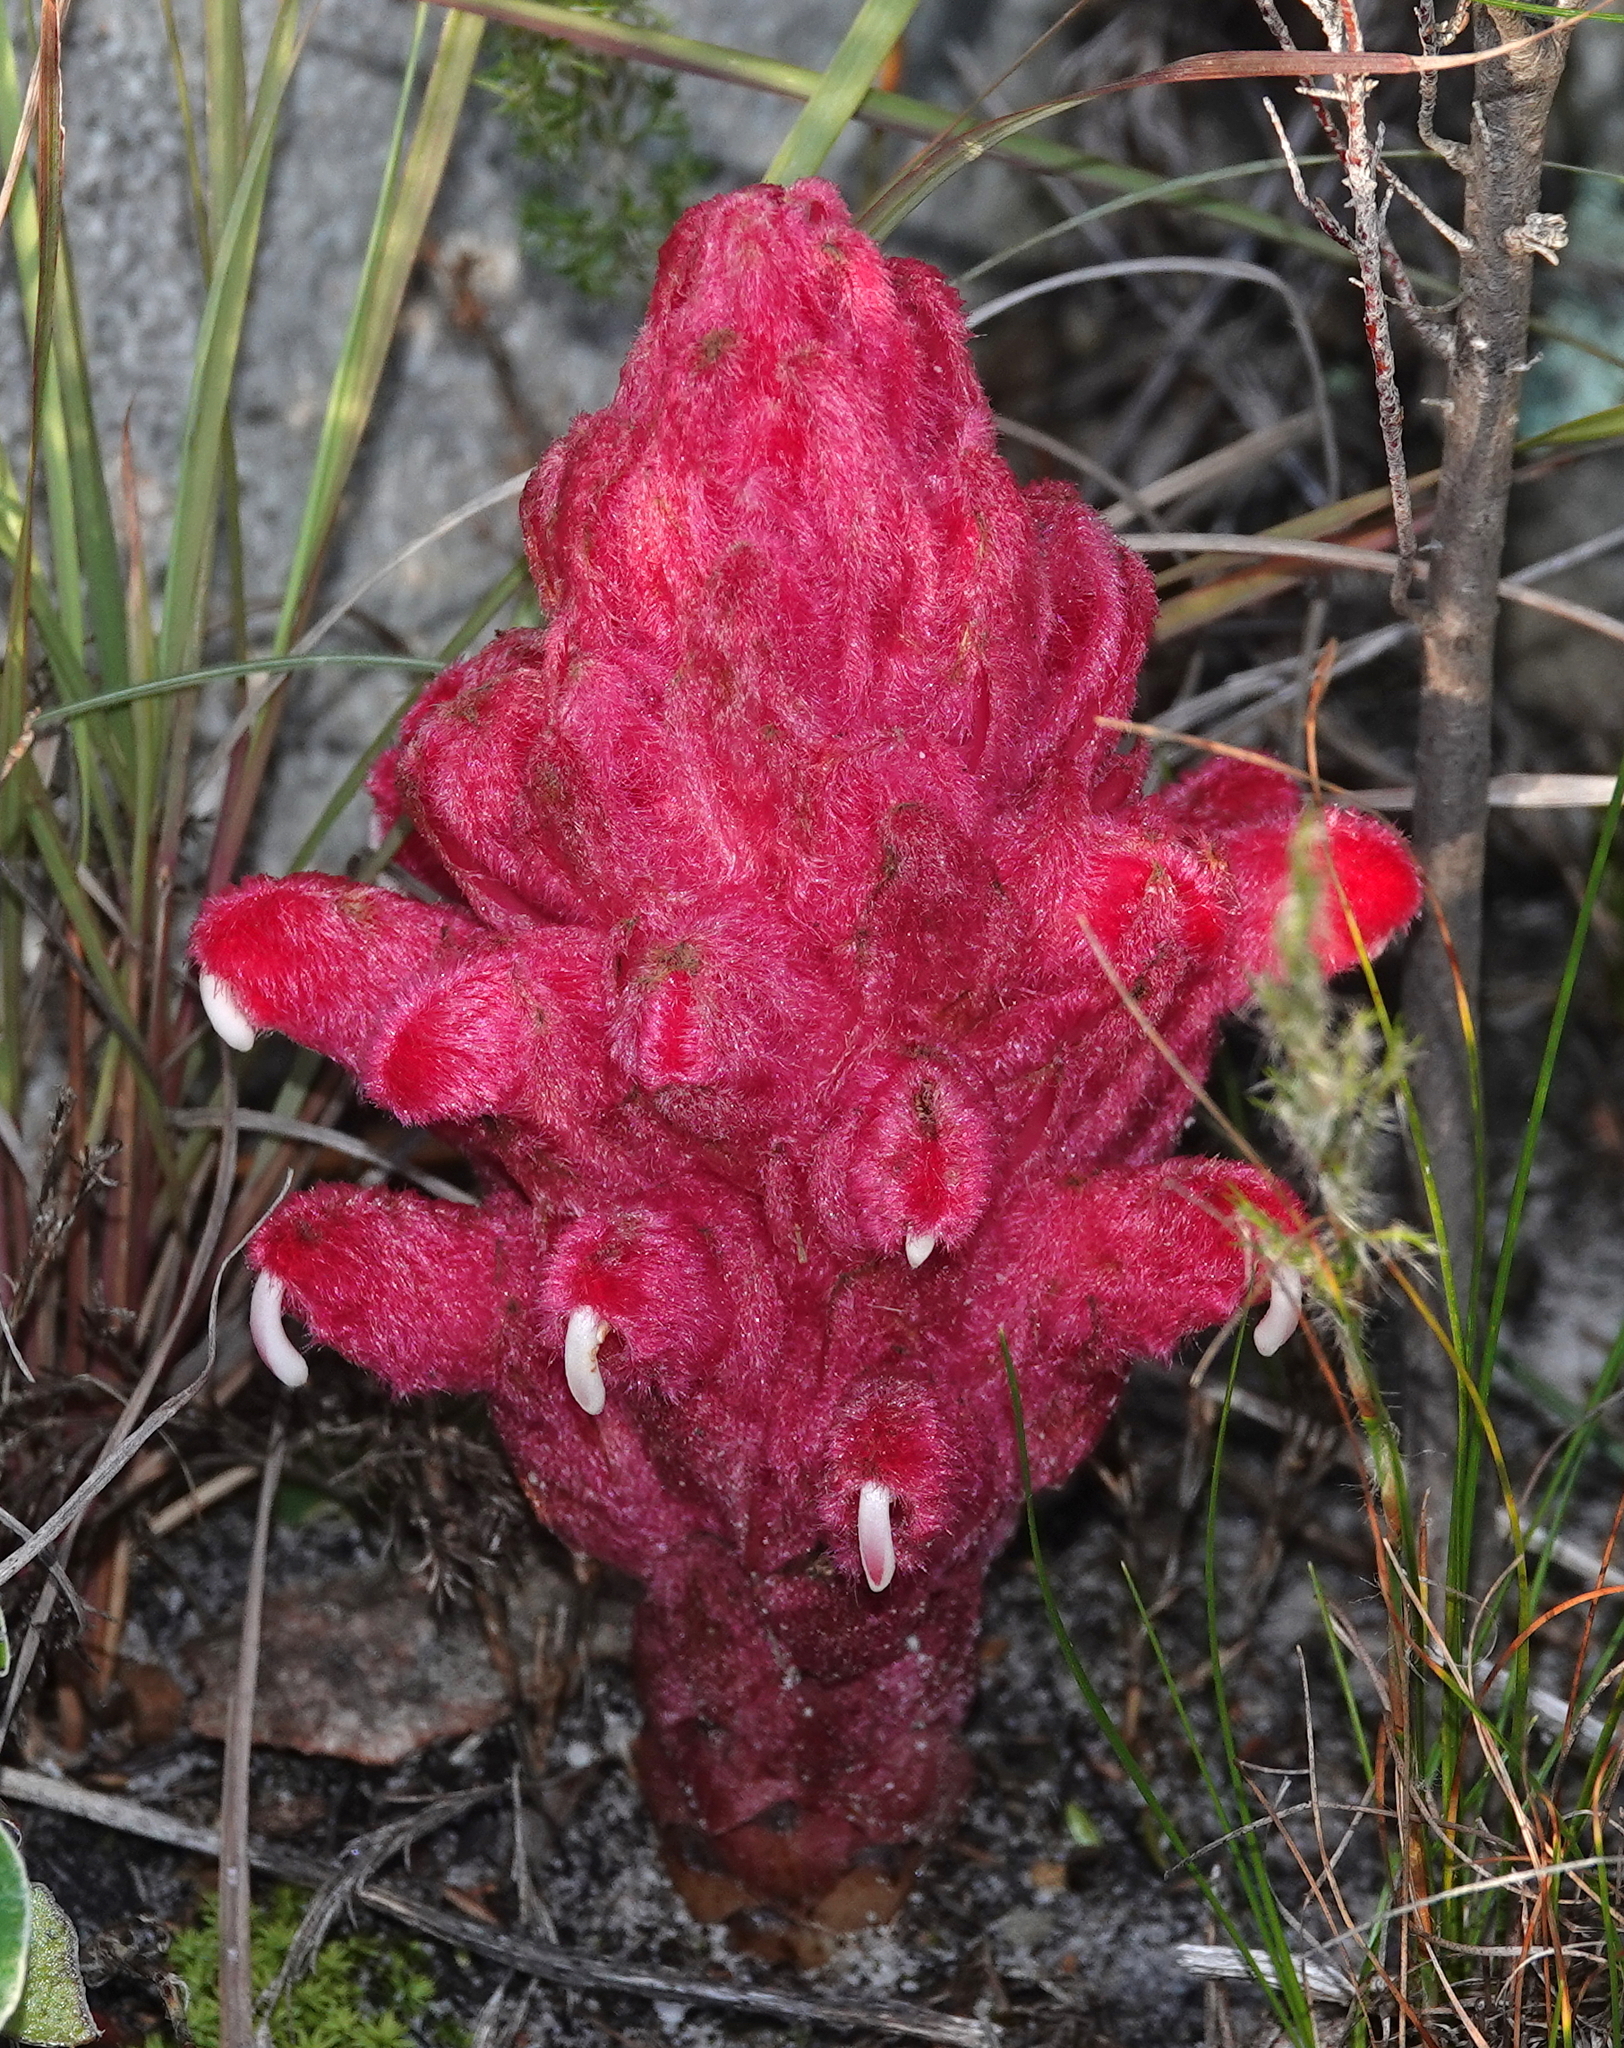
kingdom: Plantae
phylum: Tracheophyta
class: Magnoliopsida
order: Lamiales
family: Orobanchaceae
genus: Hyobanche
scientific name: Hyobanche sanguinea
